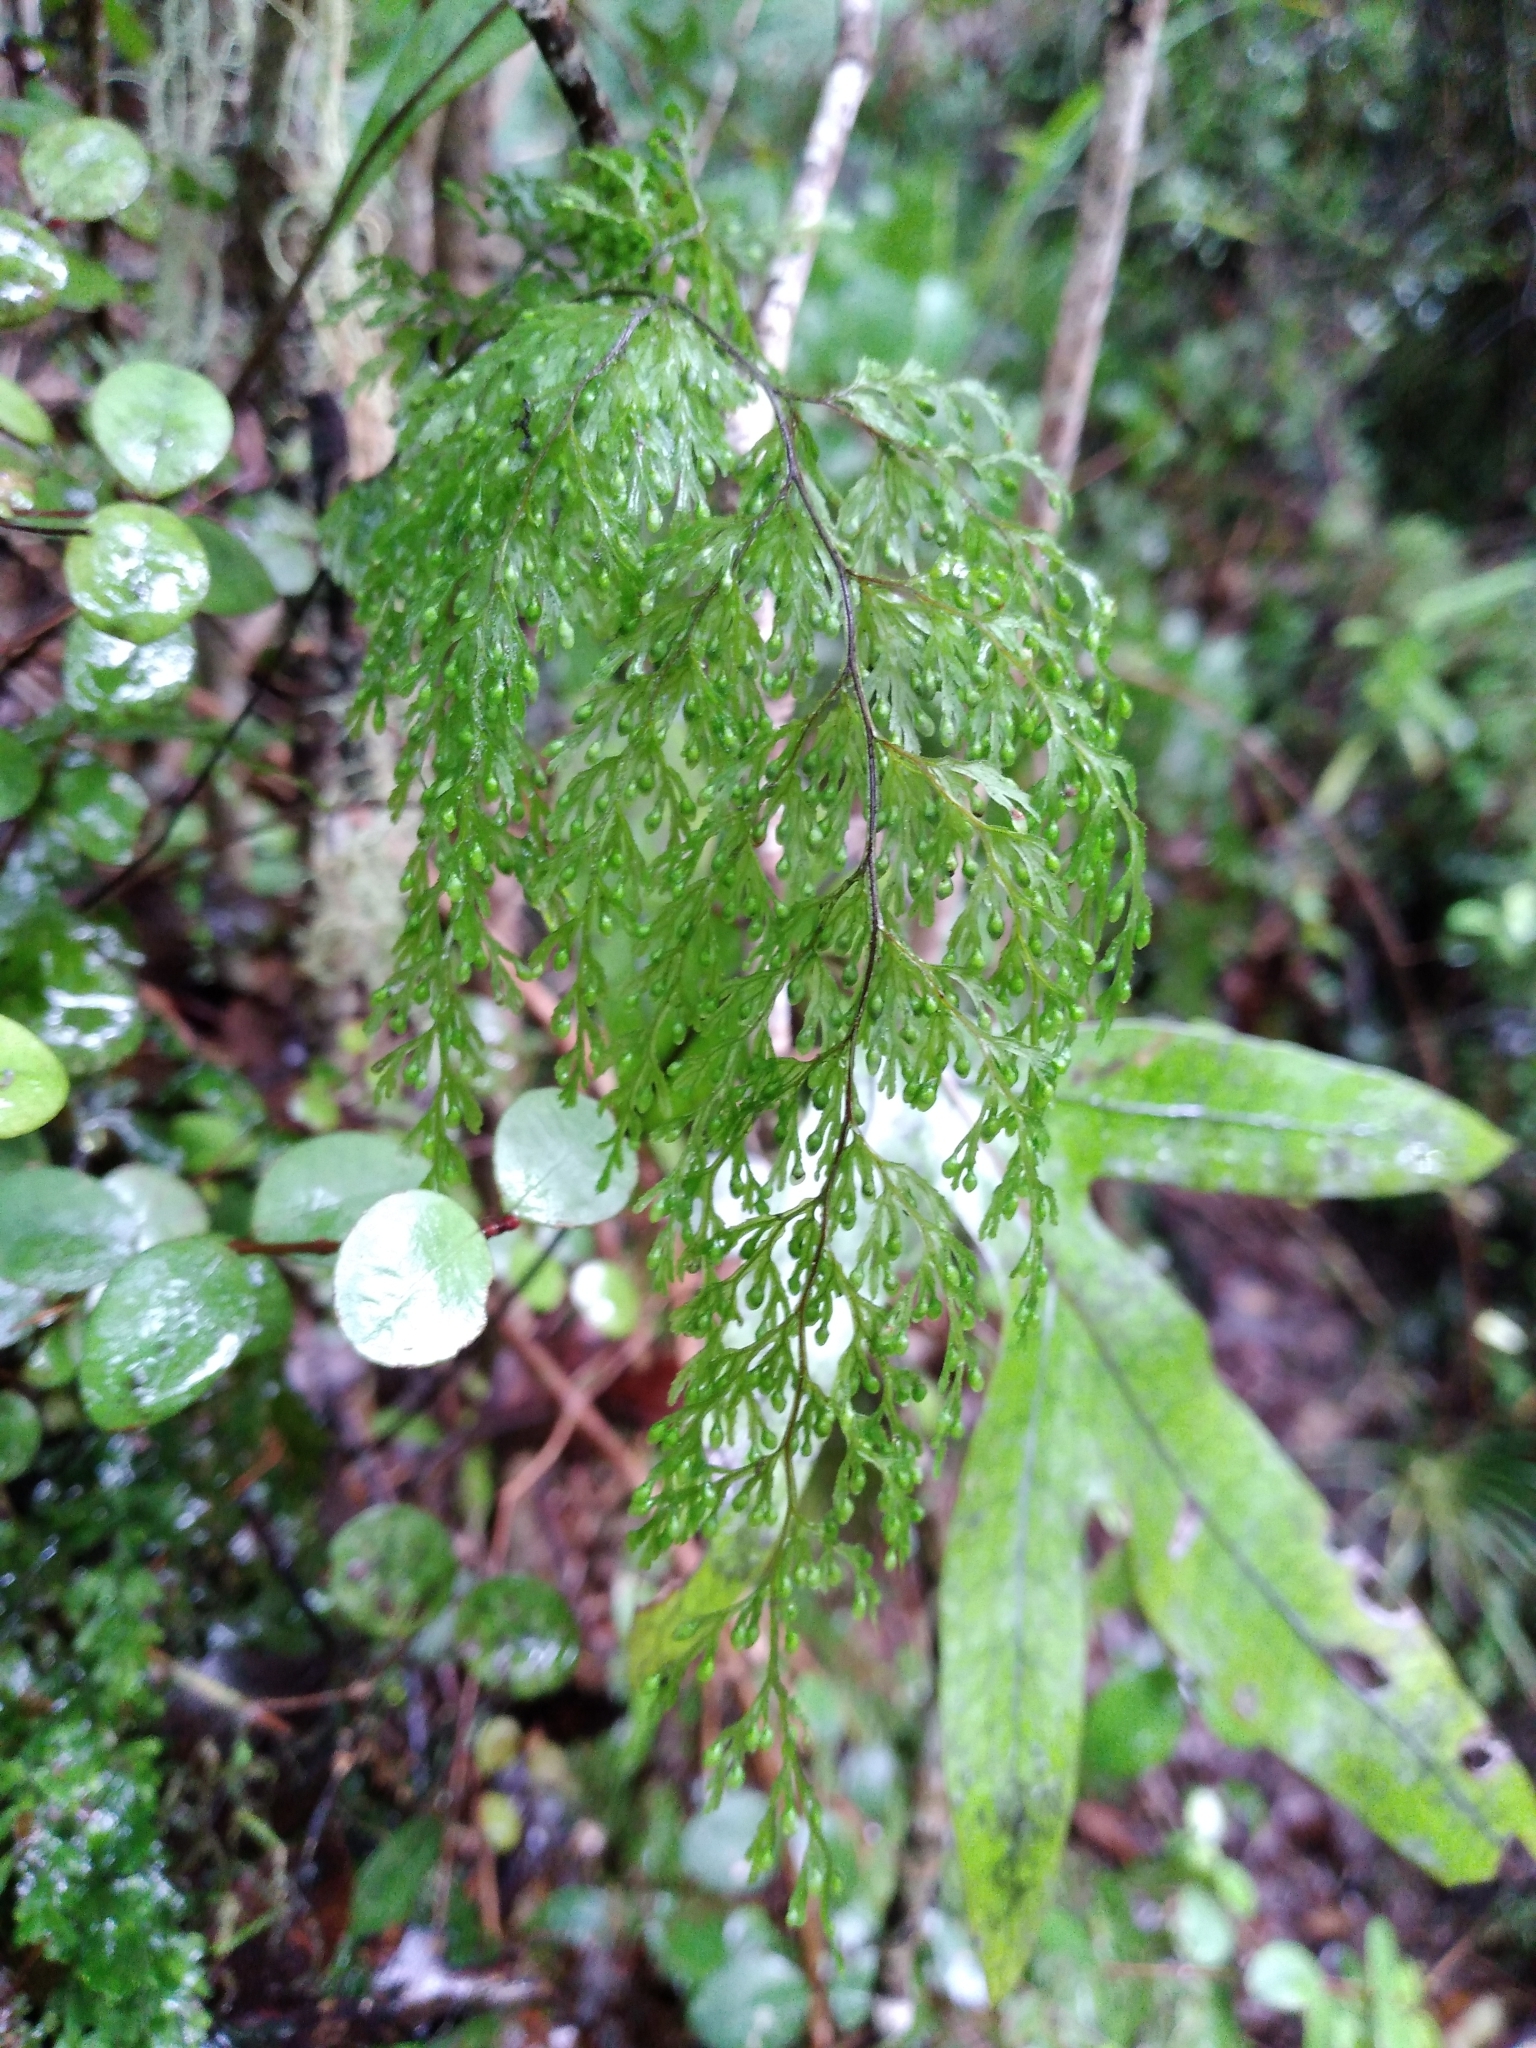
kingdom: Plantae
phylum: Tracheophyta
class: Polypodiopsida
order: Hymenophyllales
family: Hymenophyllaceae
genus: Hymenophyllum
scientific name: Hymenophyllum bivalve
